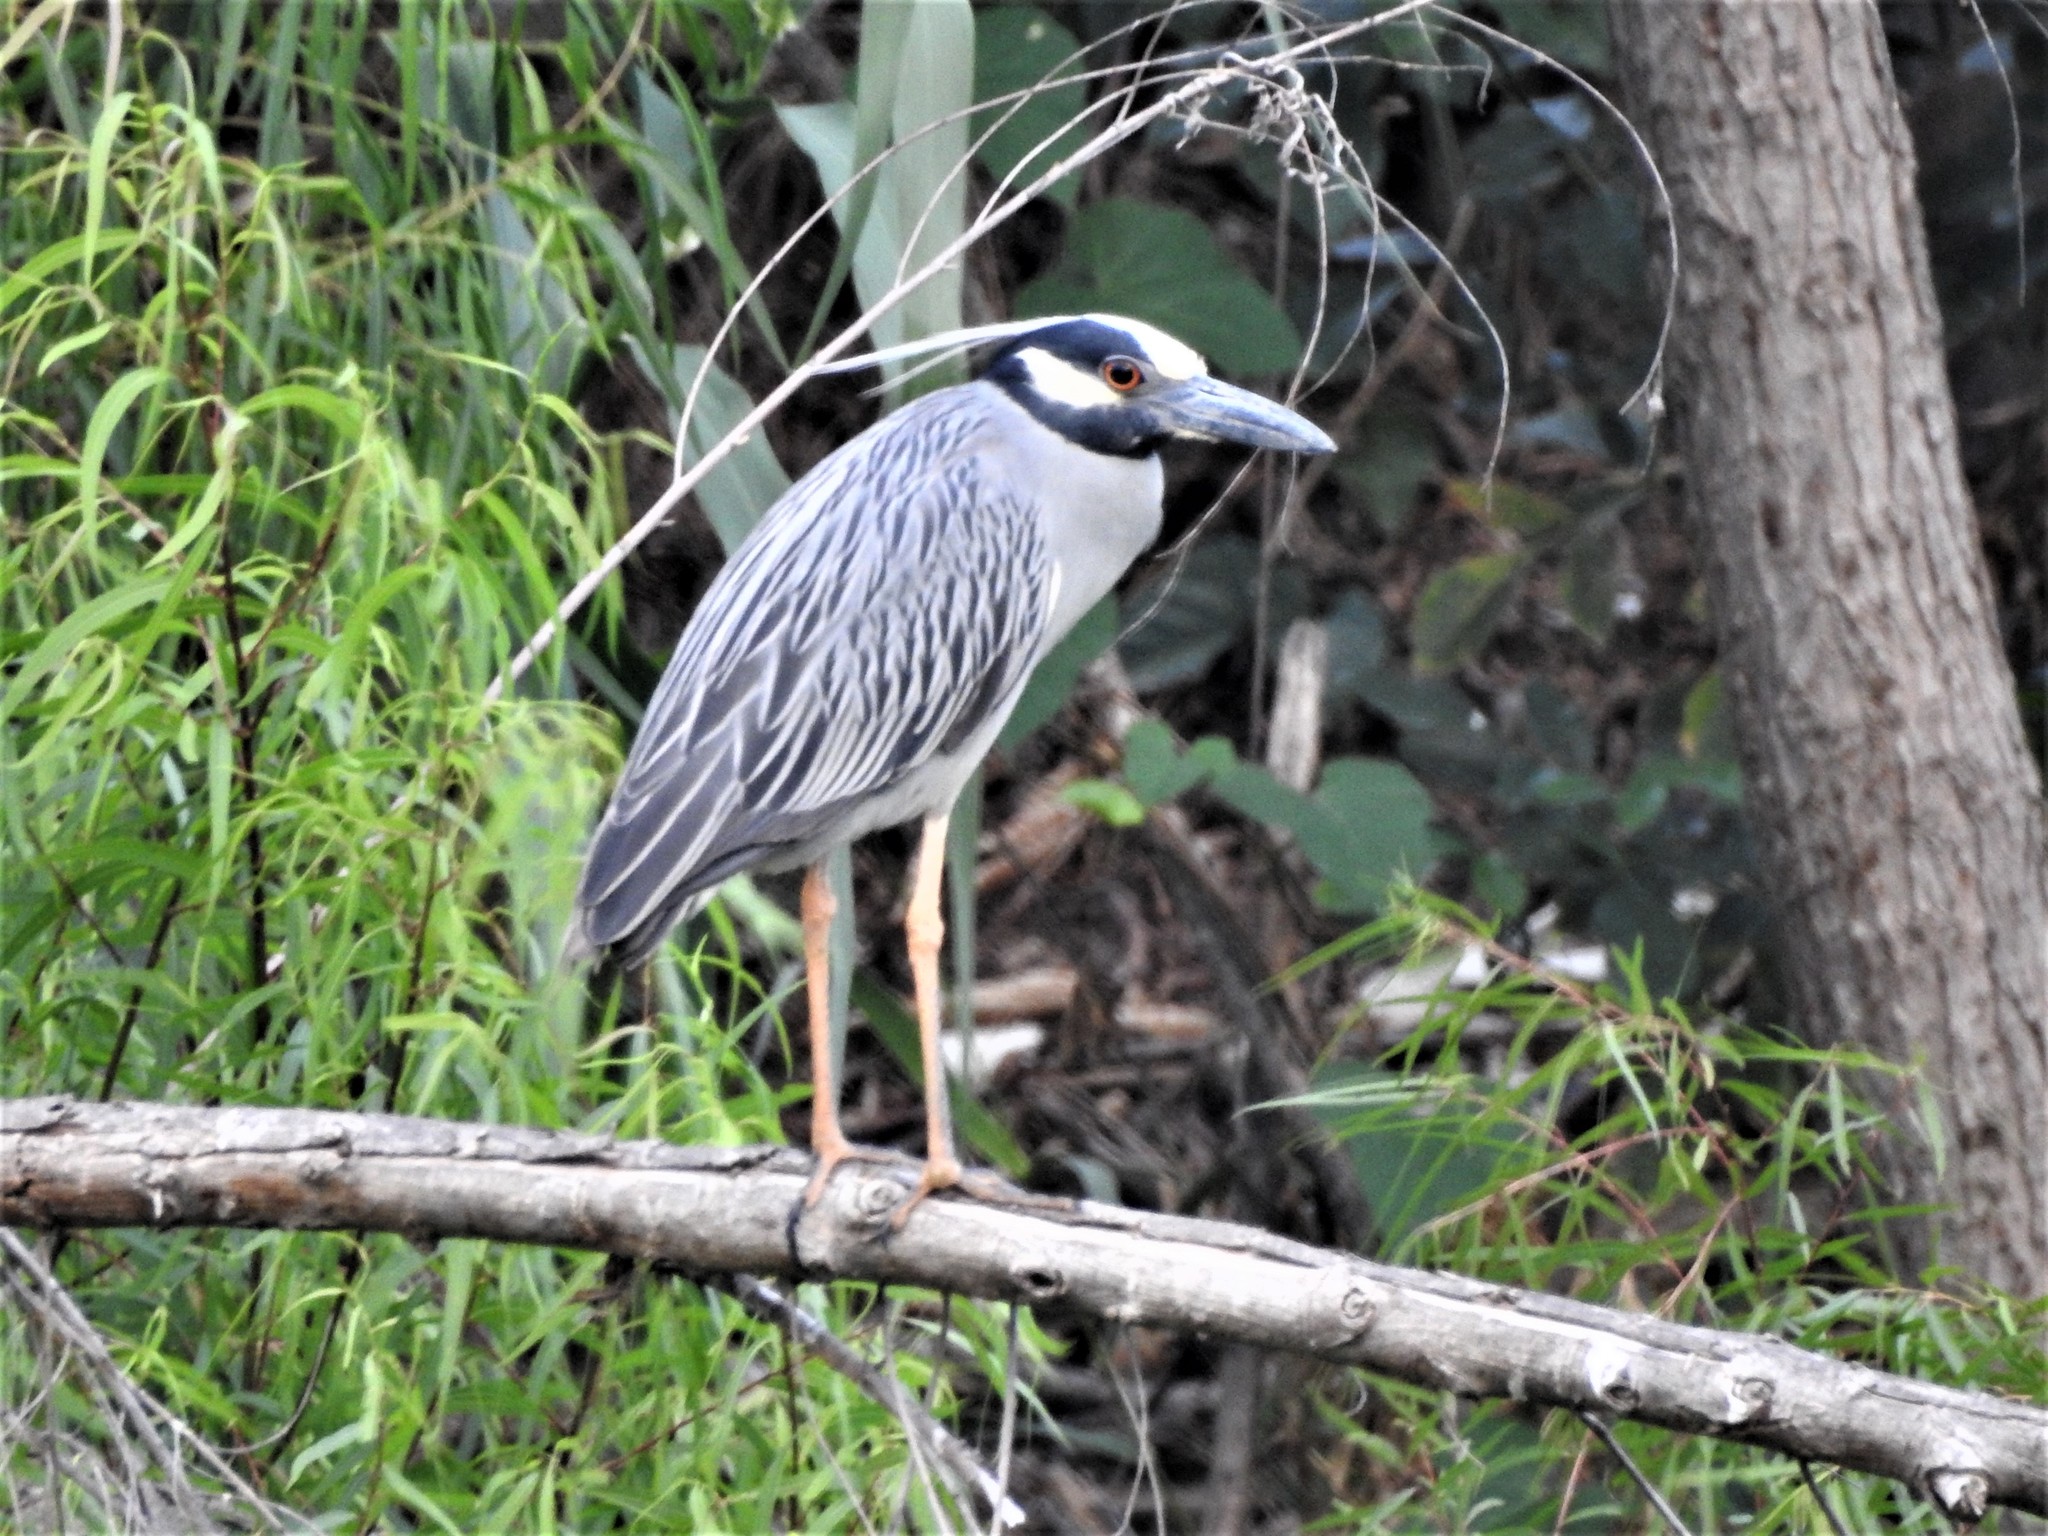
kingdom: Animalia
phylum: Chordata
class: Aves
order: Pelecaniformes
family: Ardeidae
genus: Nyctanassa
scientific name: Nyctanassa violacea
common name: Yellow-crowned night heron
